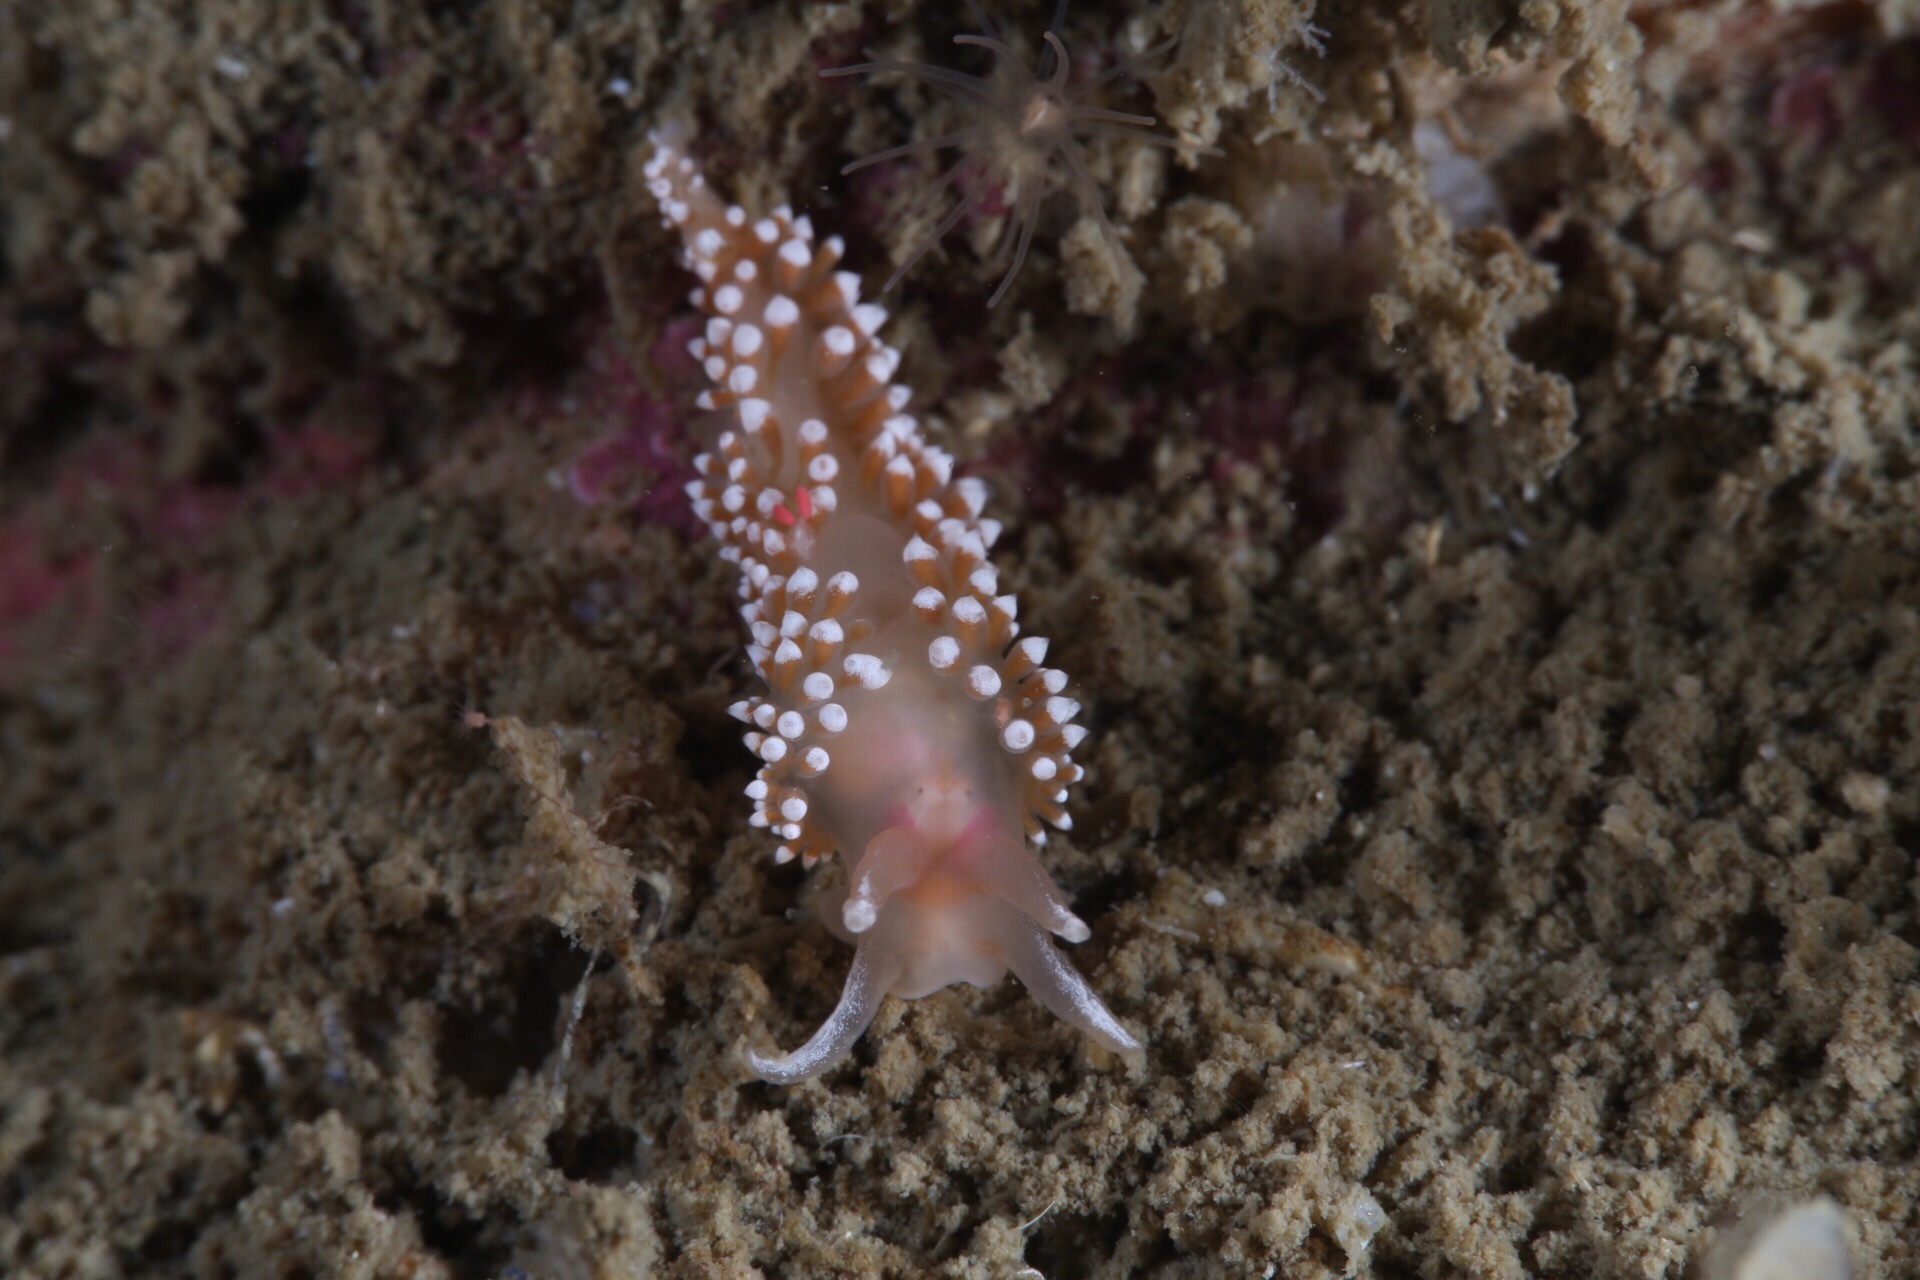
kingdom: Animalia
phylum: Mollusca
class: Gastropoda
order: Nudibranchia
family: Coryphellidae
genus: Coryphella
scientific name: Coryphella verrucosa
